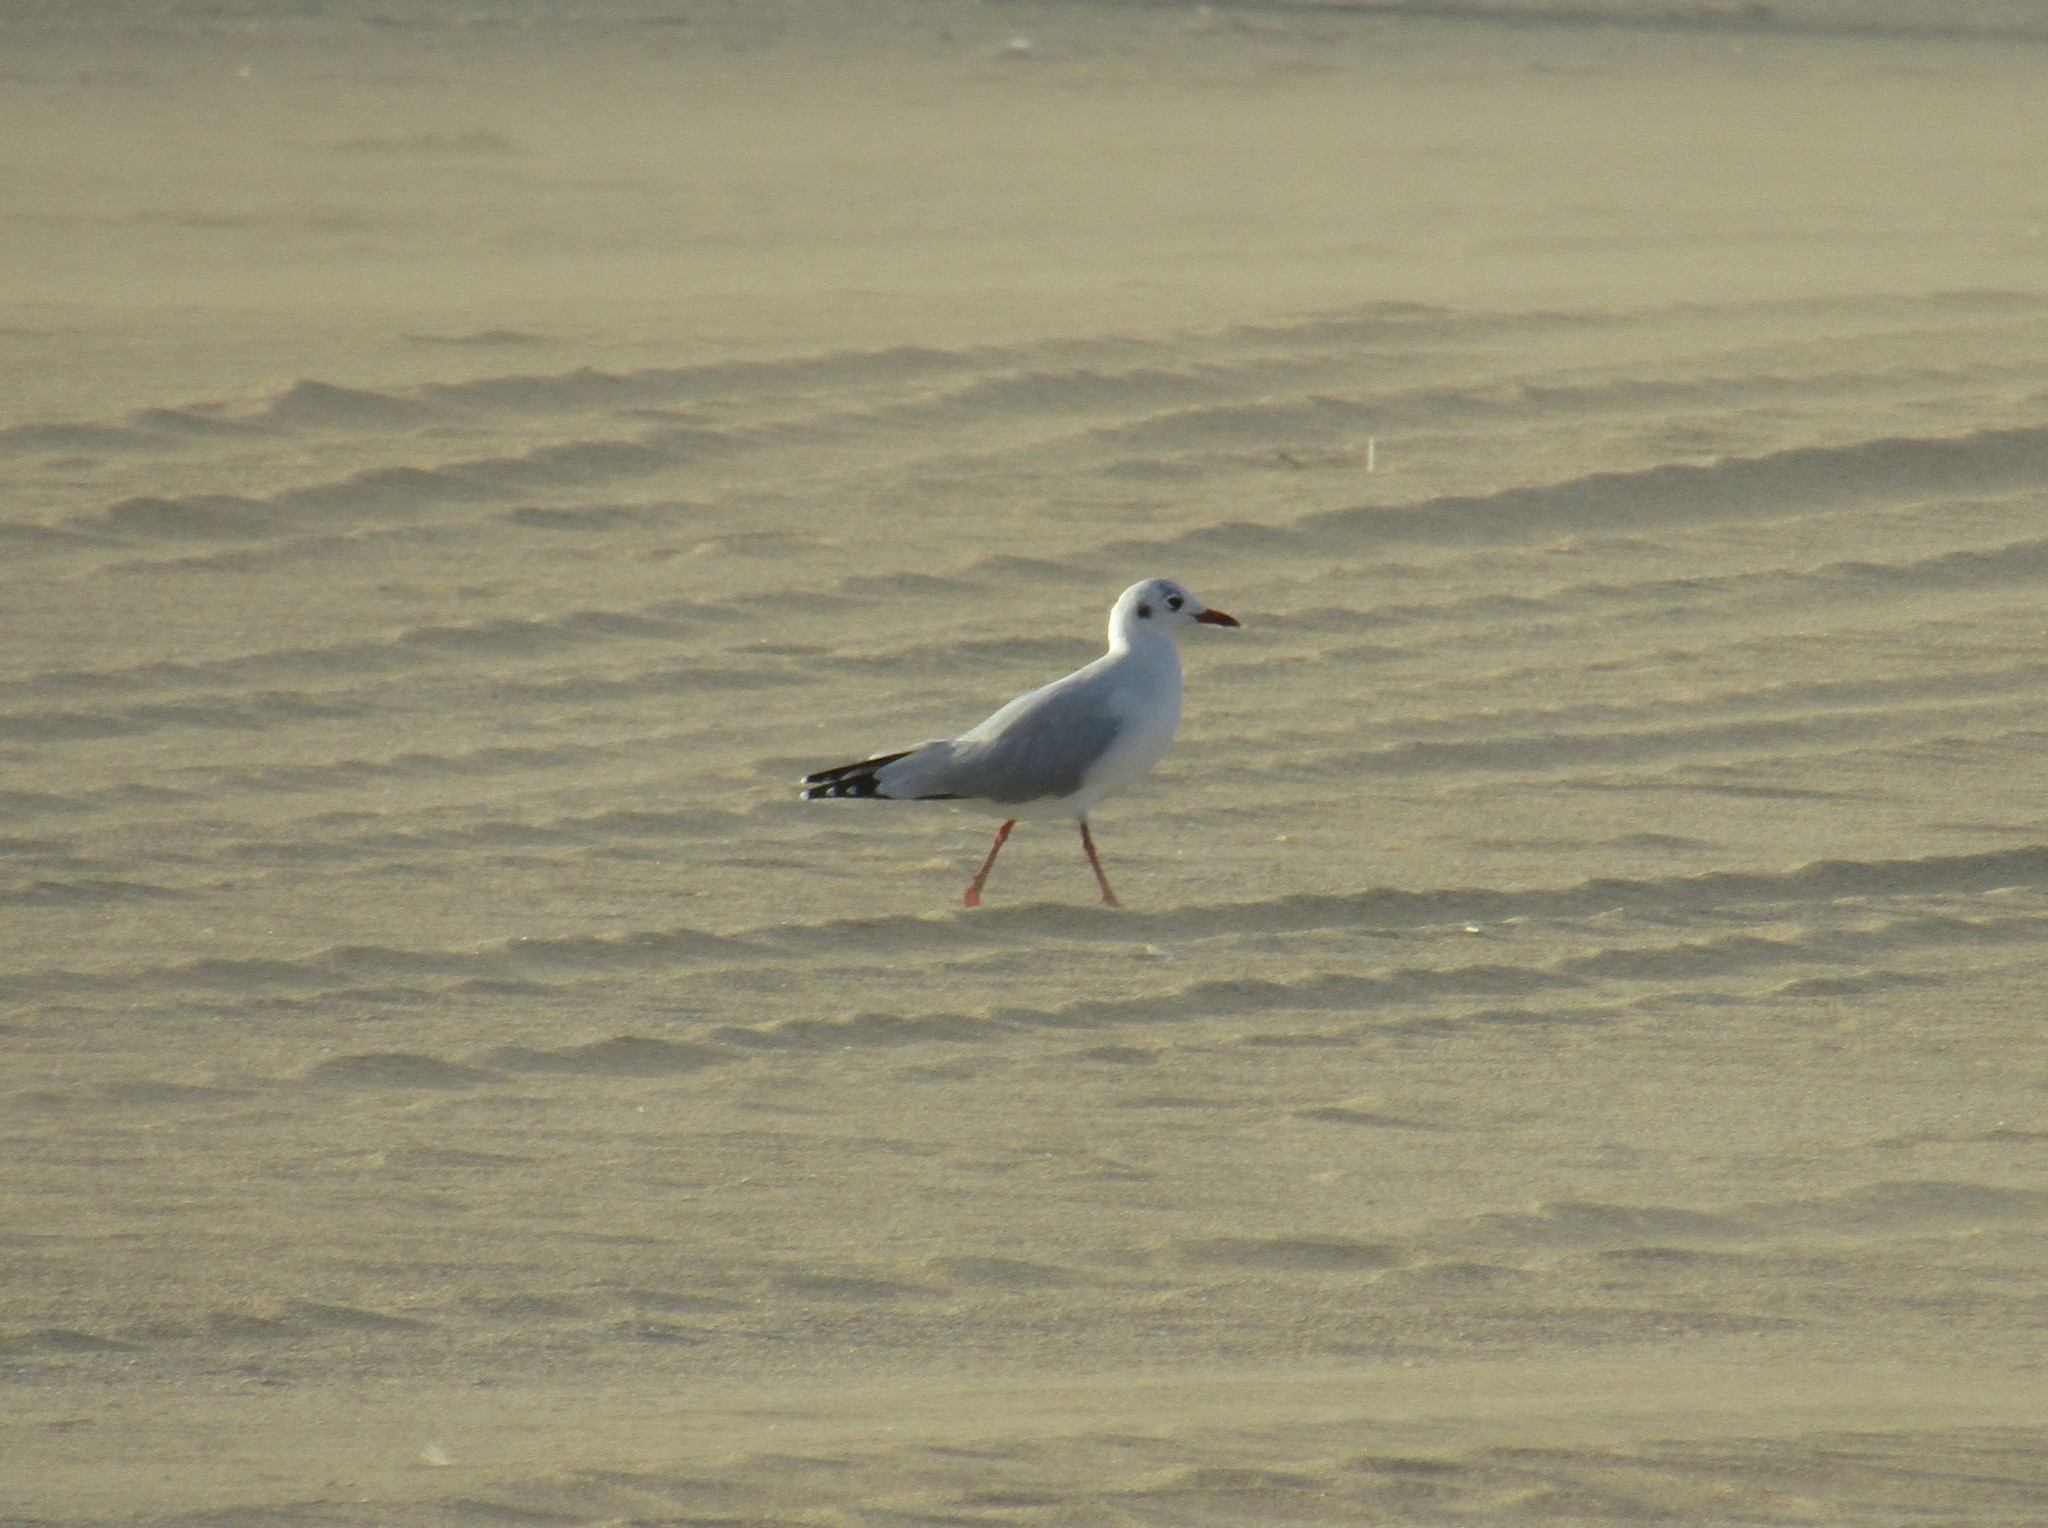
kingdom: Animalia
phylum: Chordata
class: Aves
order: Charadriiformes
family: Laridae
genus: Chroicocephalus
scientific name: Chroicocephalus maculipennis
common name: Brown-hooded gull
